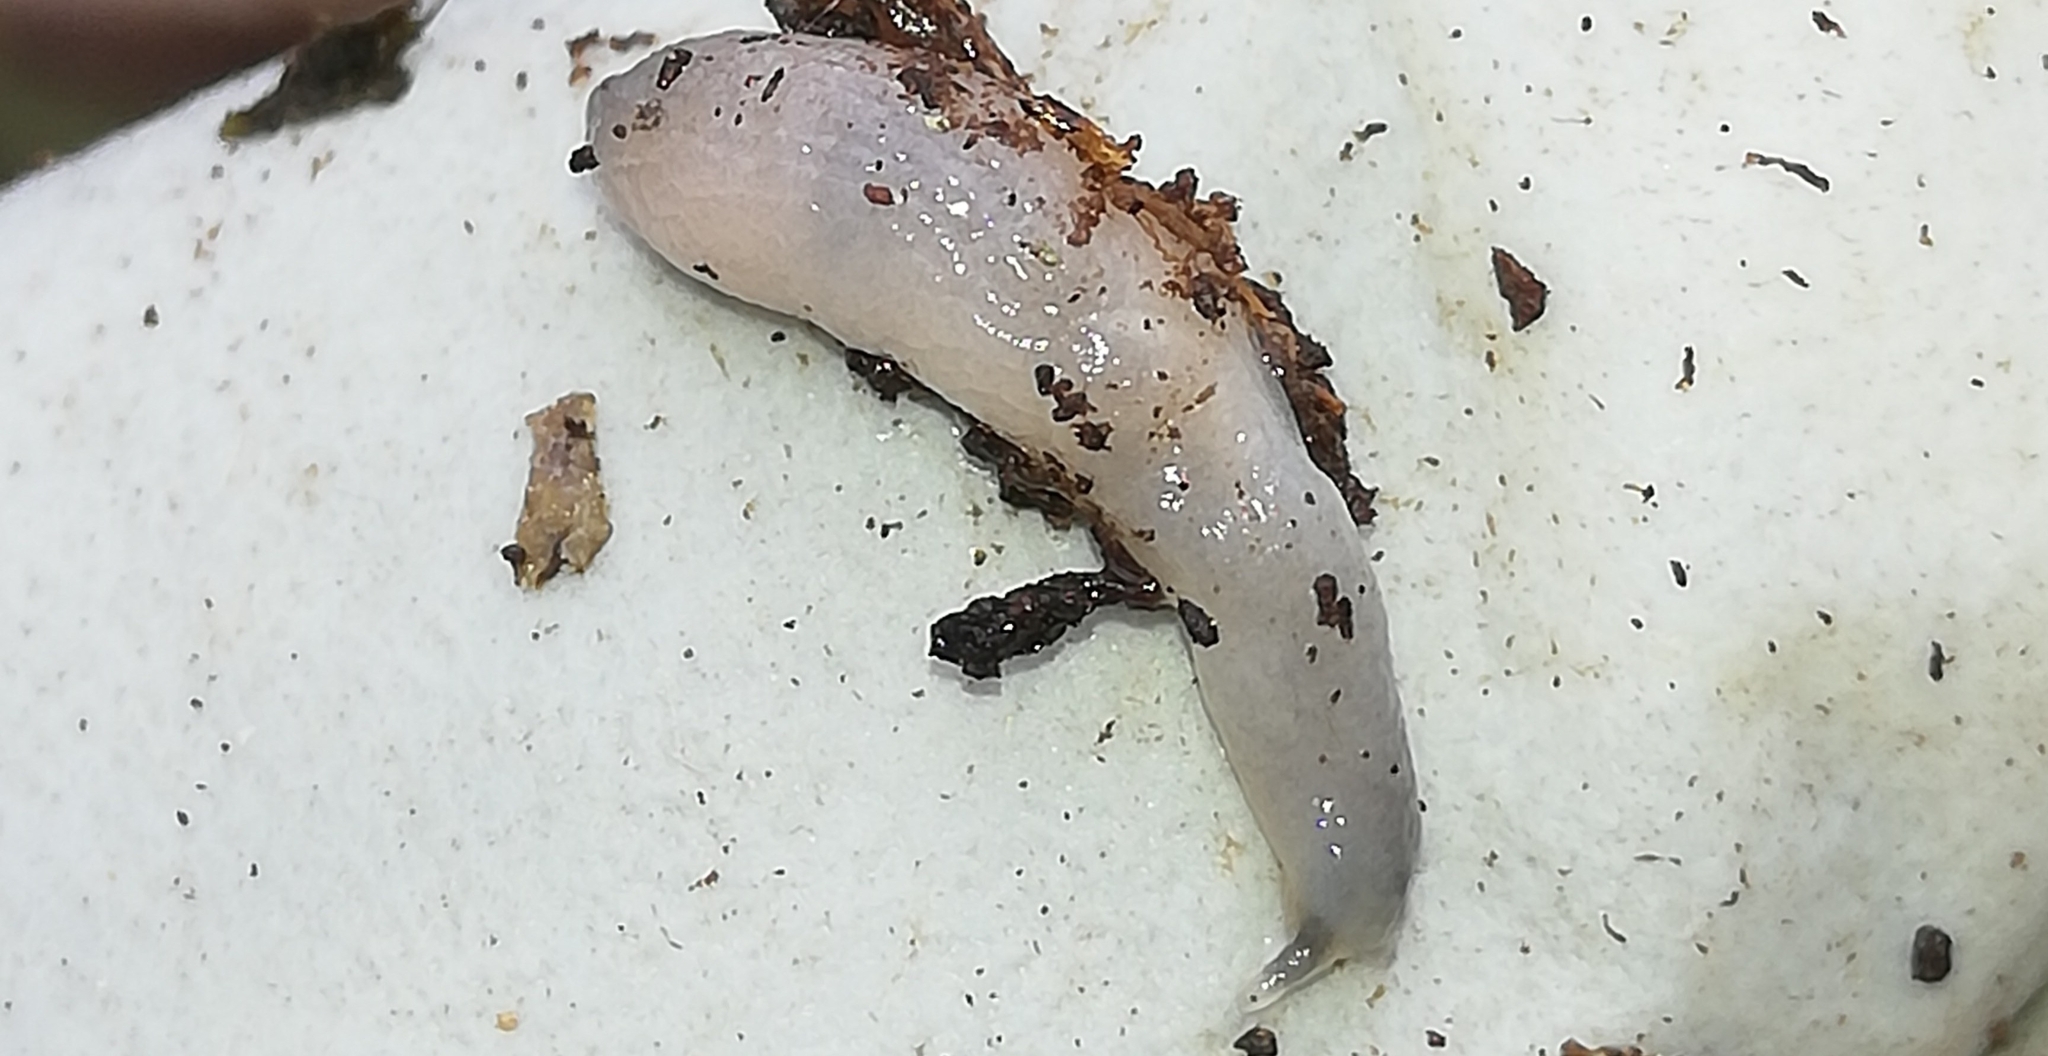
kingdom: Animalia
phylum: Mollusca
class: Gastropoda
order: Stylommatophora
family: Boettgerillidae
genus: Boettgerilla
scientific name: Boettgerilla pallens
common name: Worm slug
